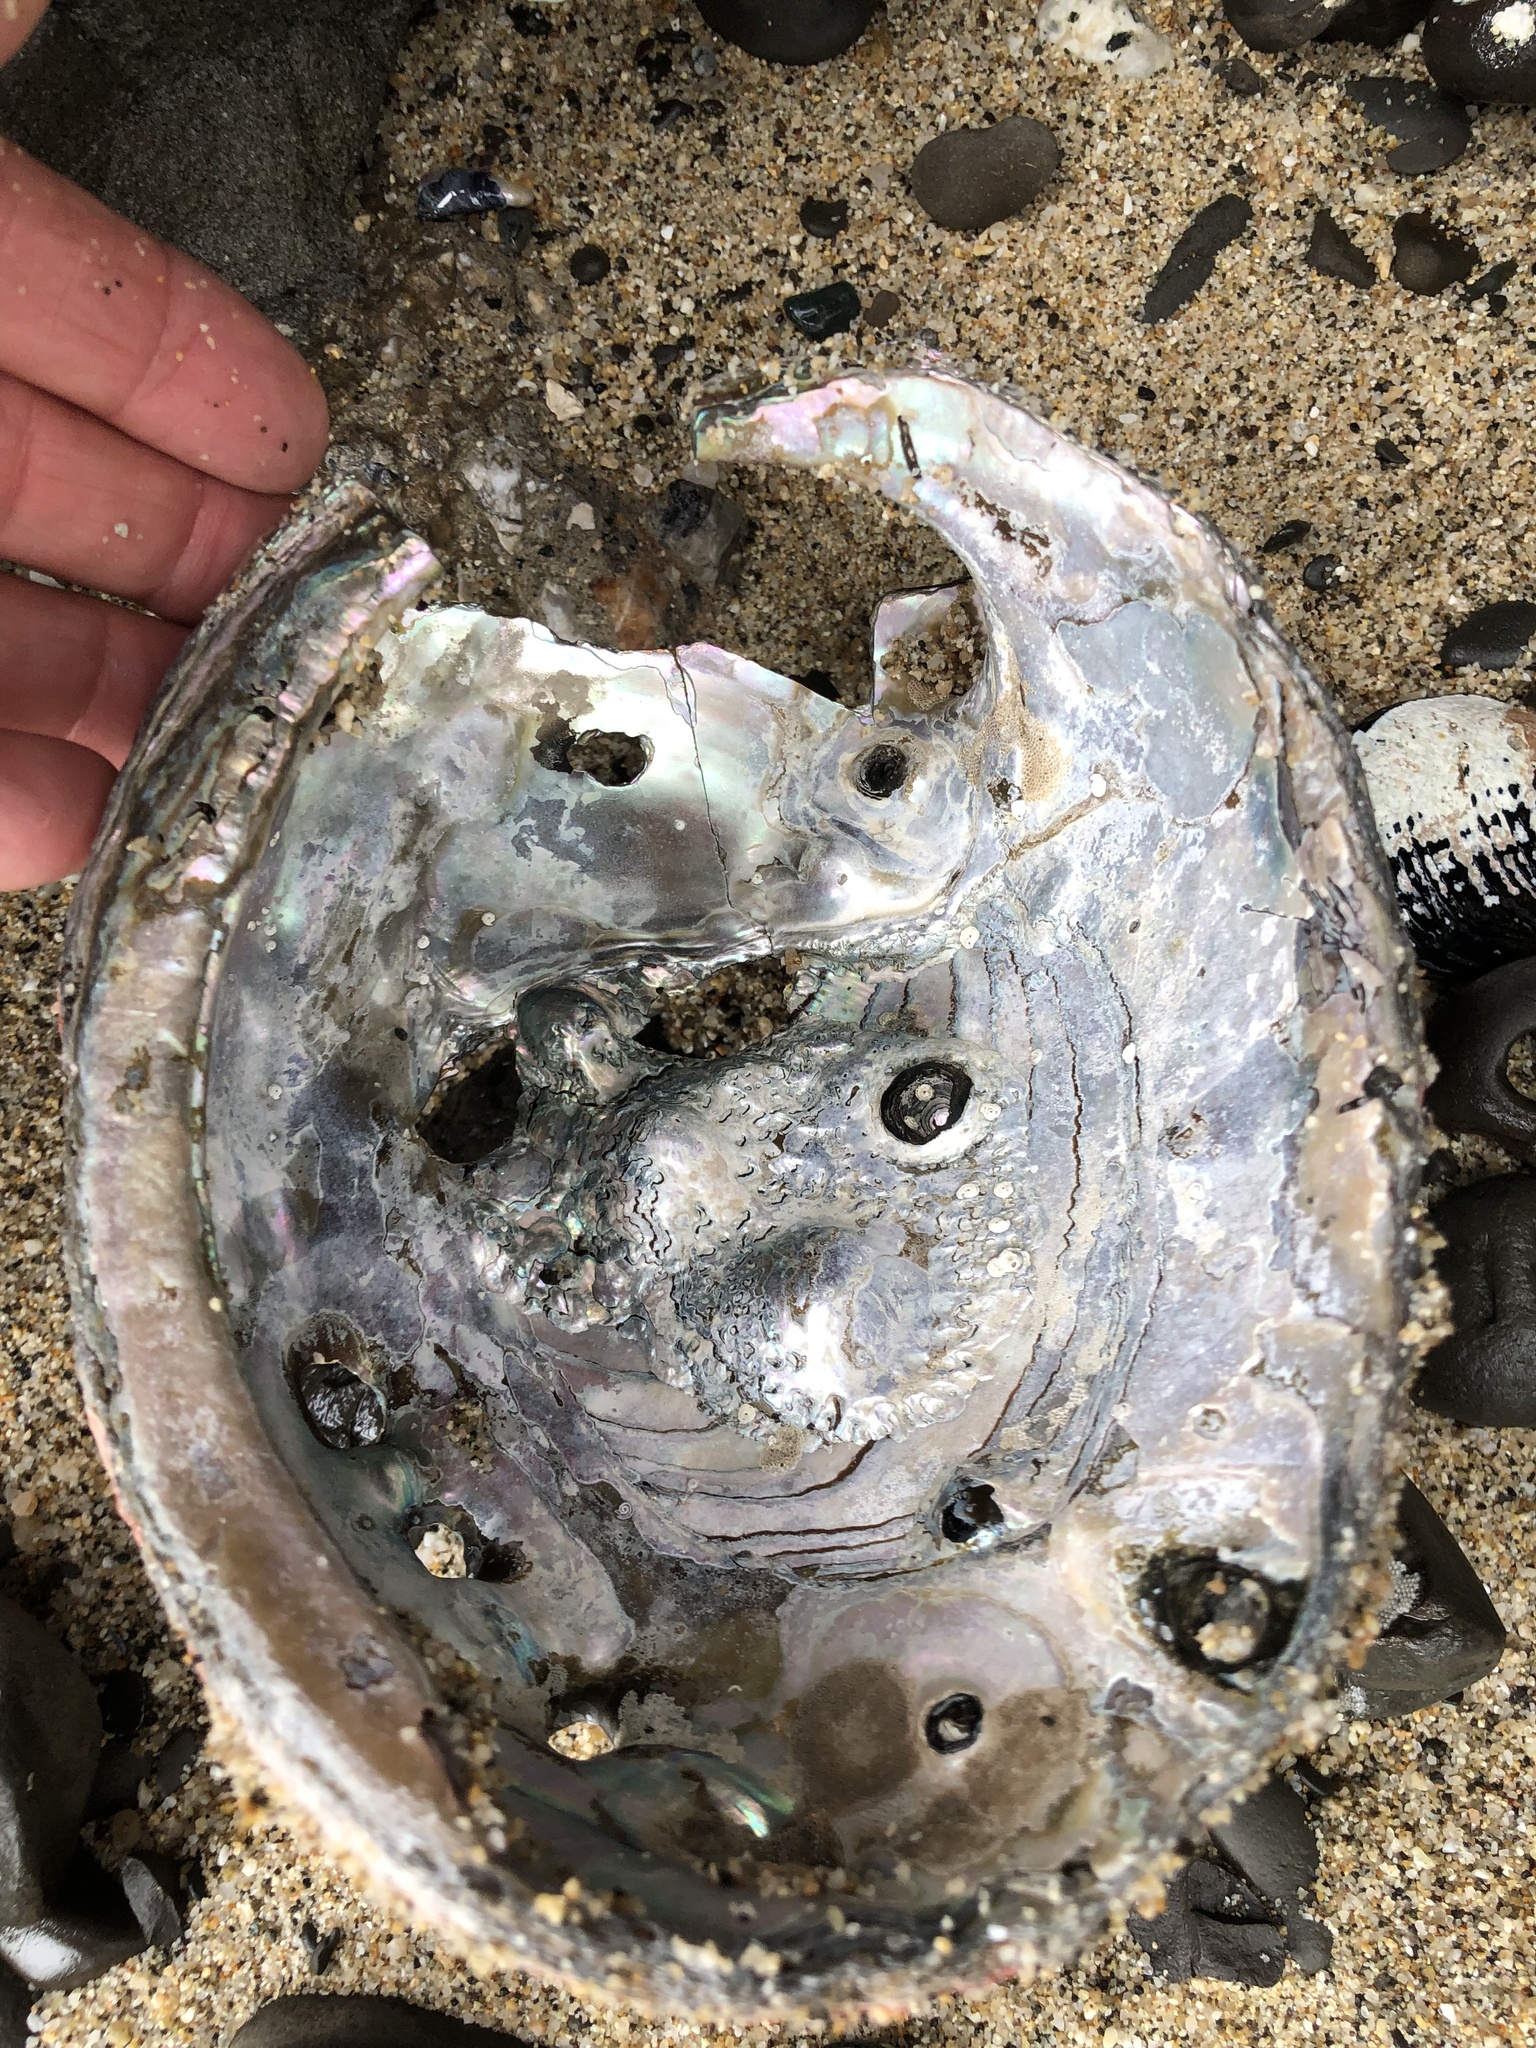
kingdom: Animalia
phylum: Mollusca
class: Gastropoda
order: Lepetellida
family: Haliotidae
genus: Haliotis
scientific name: Haliotis rufescens
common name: Red abalone
